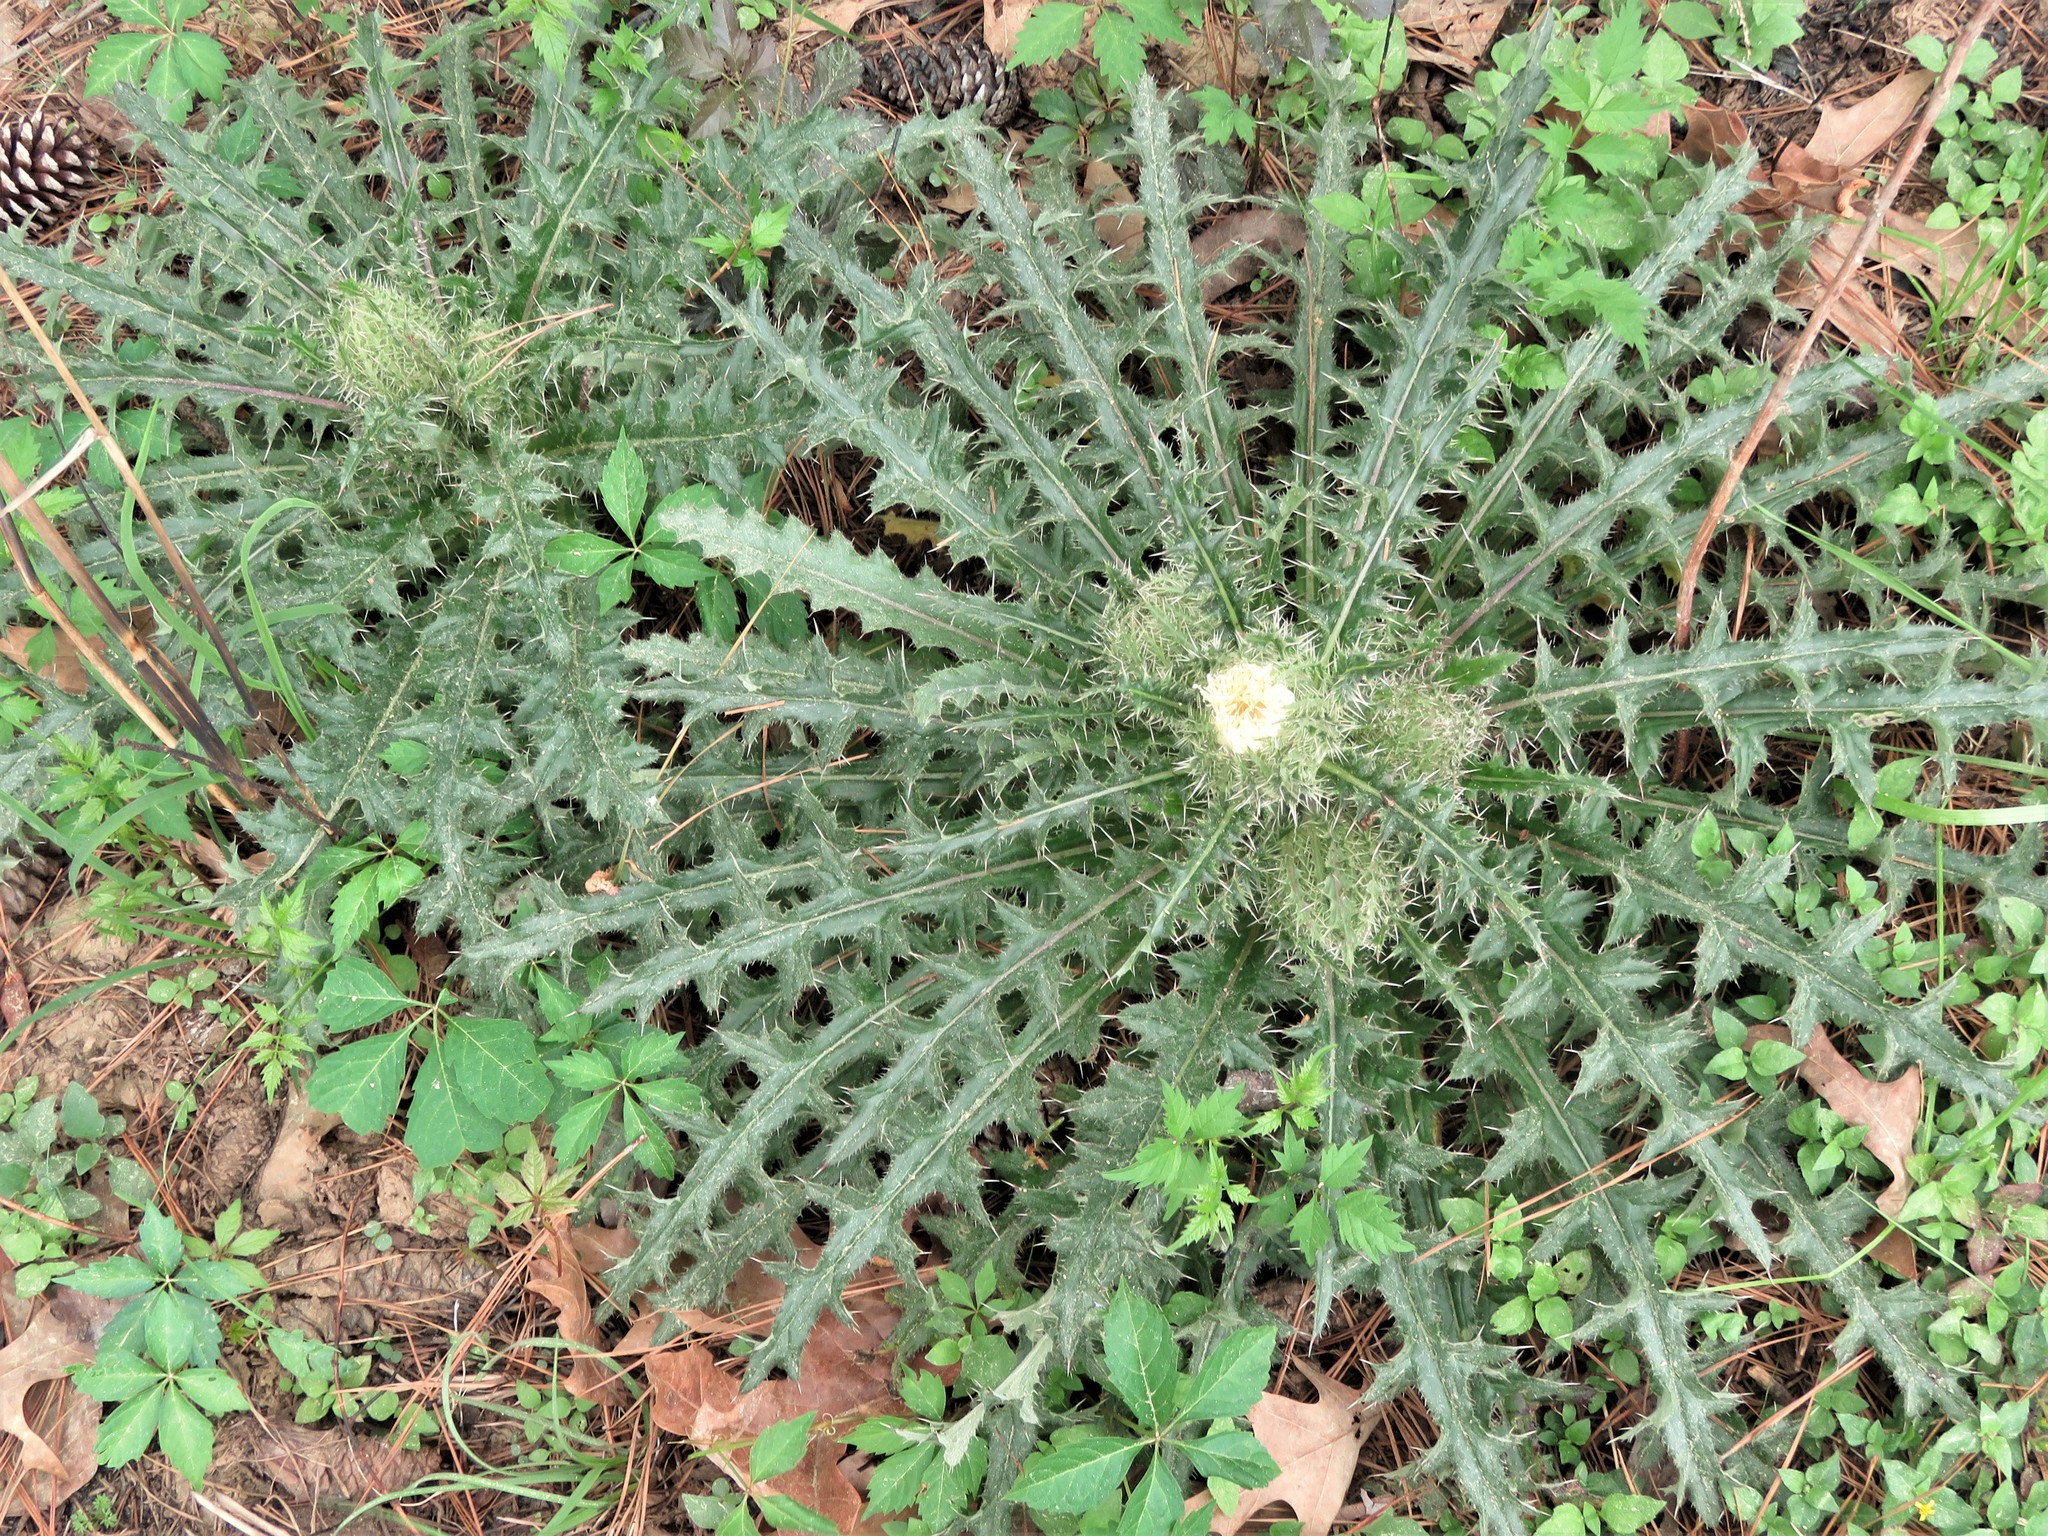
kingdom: Plantae
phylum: Tracheophyta
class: Magnoliopsida
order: Asterales
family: Asteraceae
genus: Cirsium
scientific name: Cirsium horridulum
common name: Bristly thistle
